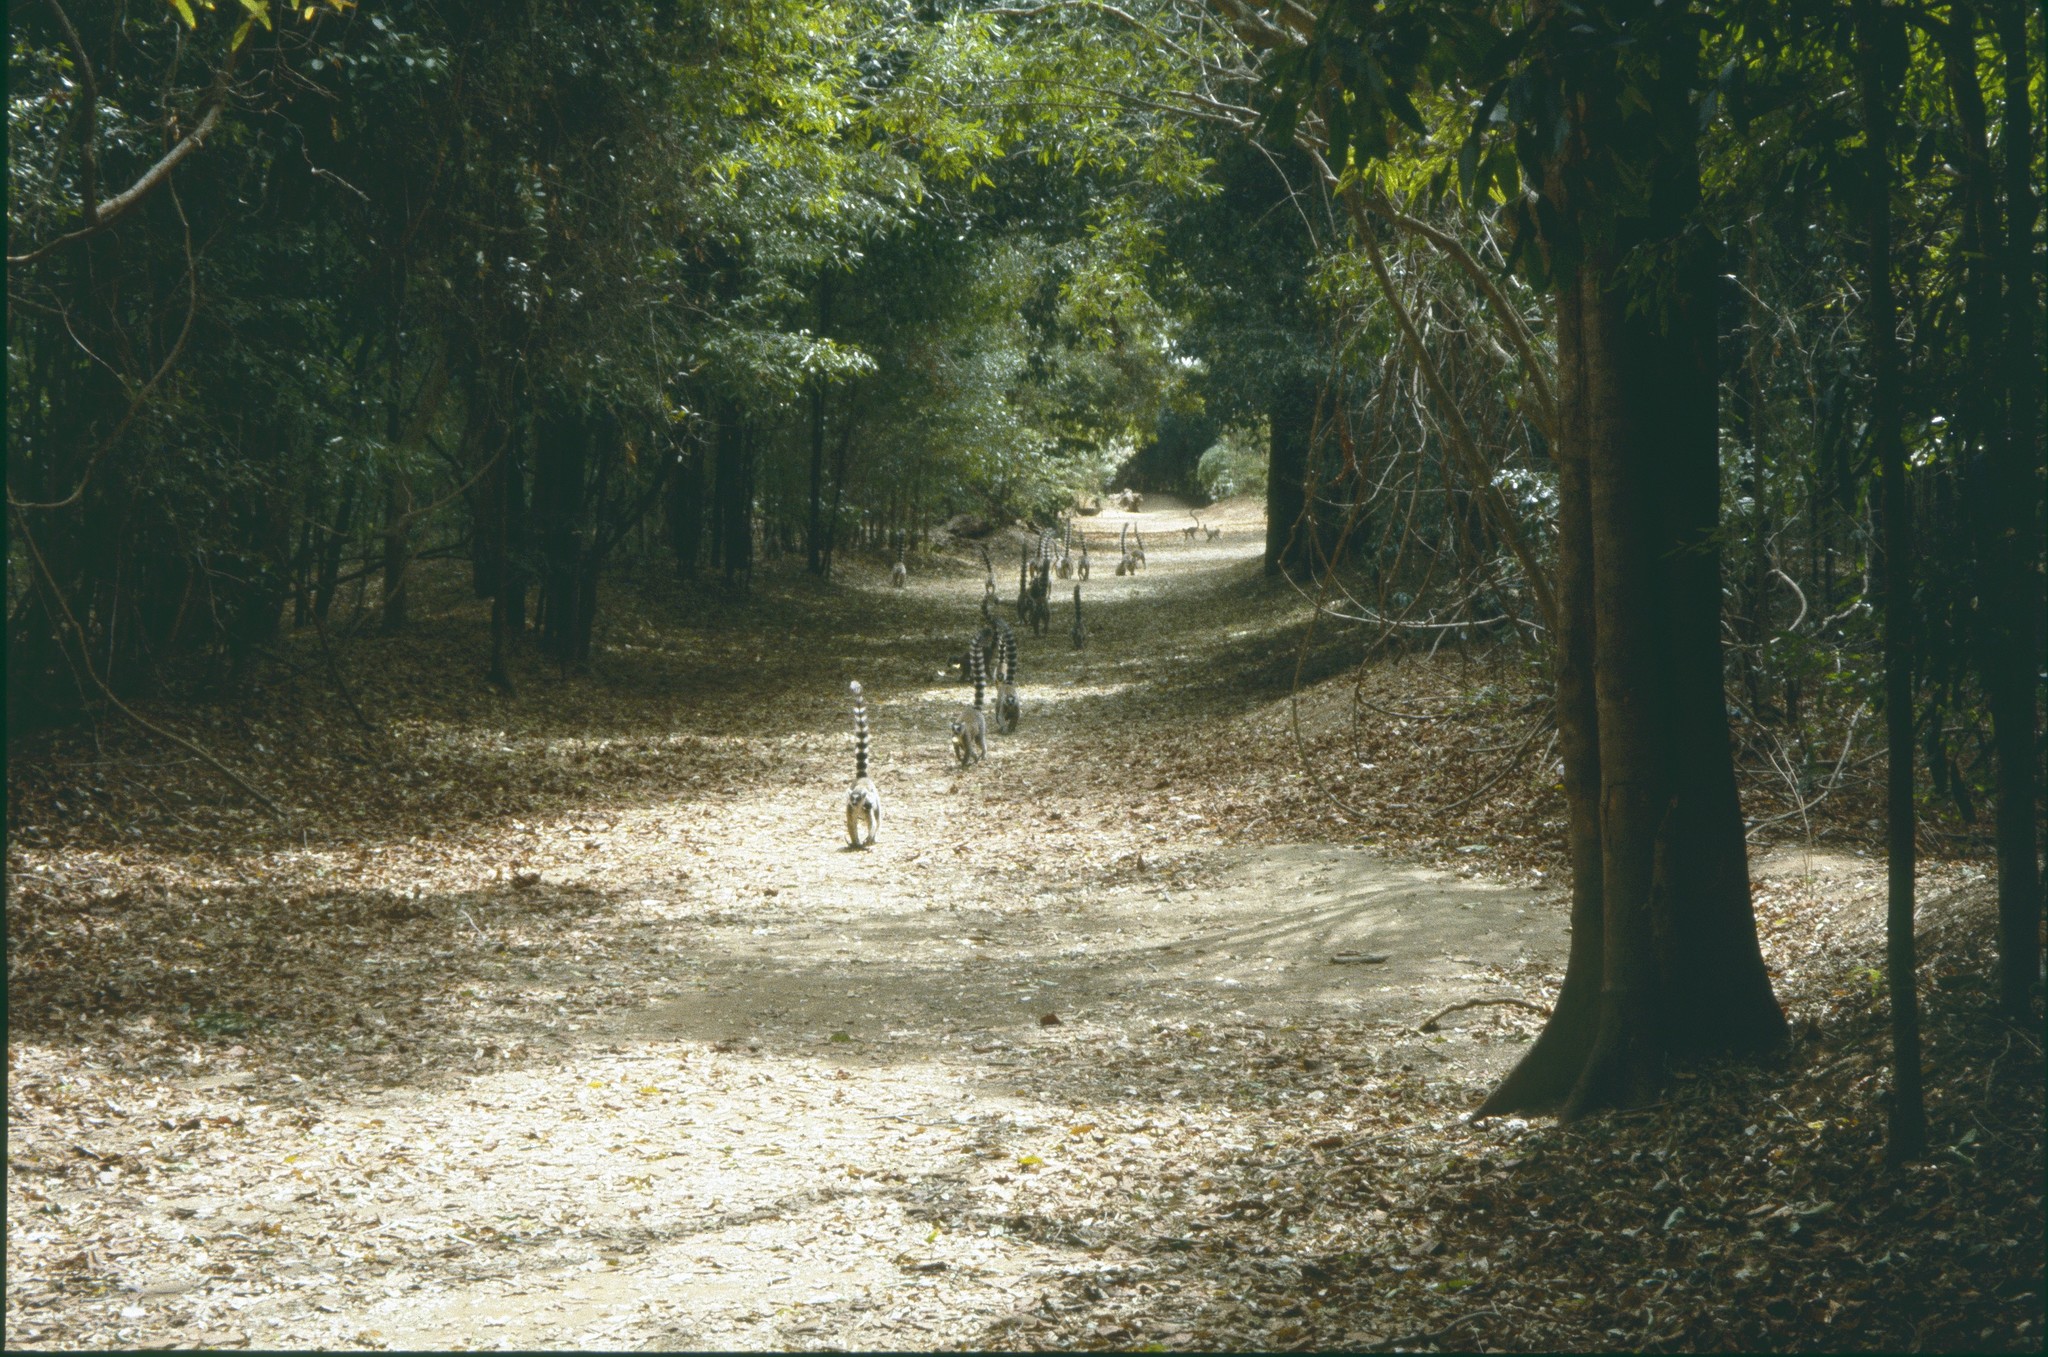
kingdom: Animalia
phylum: Chordata
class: Mammalia
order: Primates
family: Lemuridae
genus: Lemur
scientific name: Lemur catta
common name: Ring-tailed lemur
